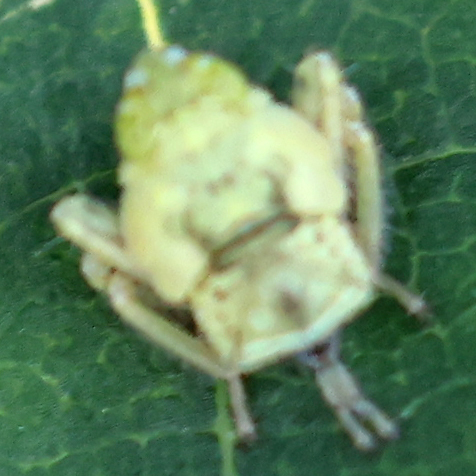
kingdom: Animalia
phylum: Arthropoda
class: Insecta
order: Hemiptera
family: Cicadellidae
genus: Jikradia
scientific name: Jikradia olitoria
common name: Coppery leafhopper
